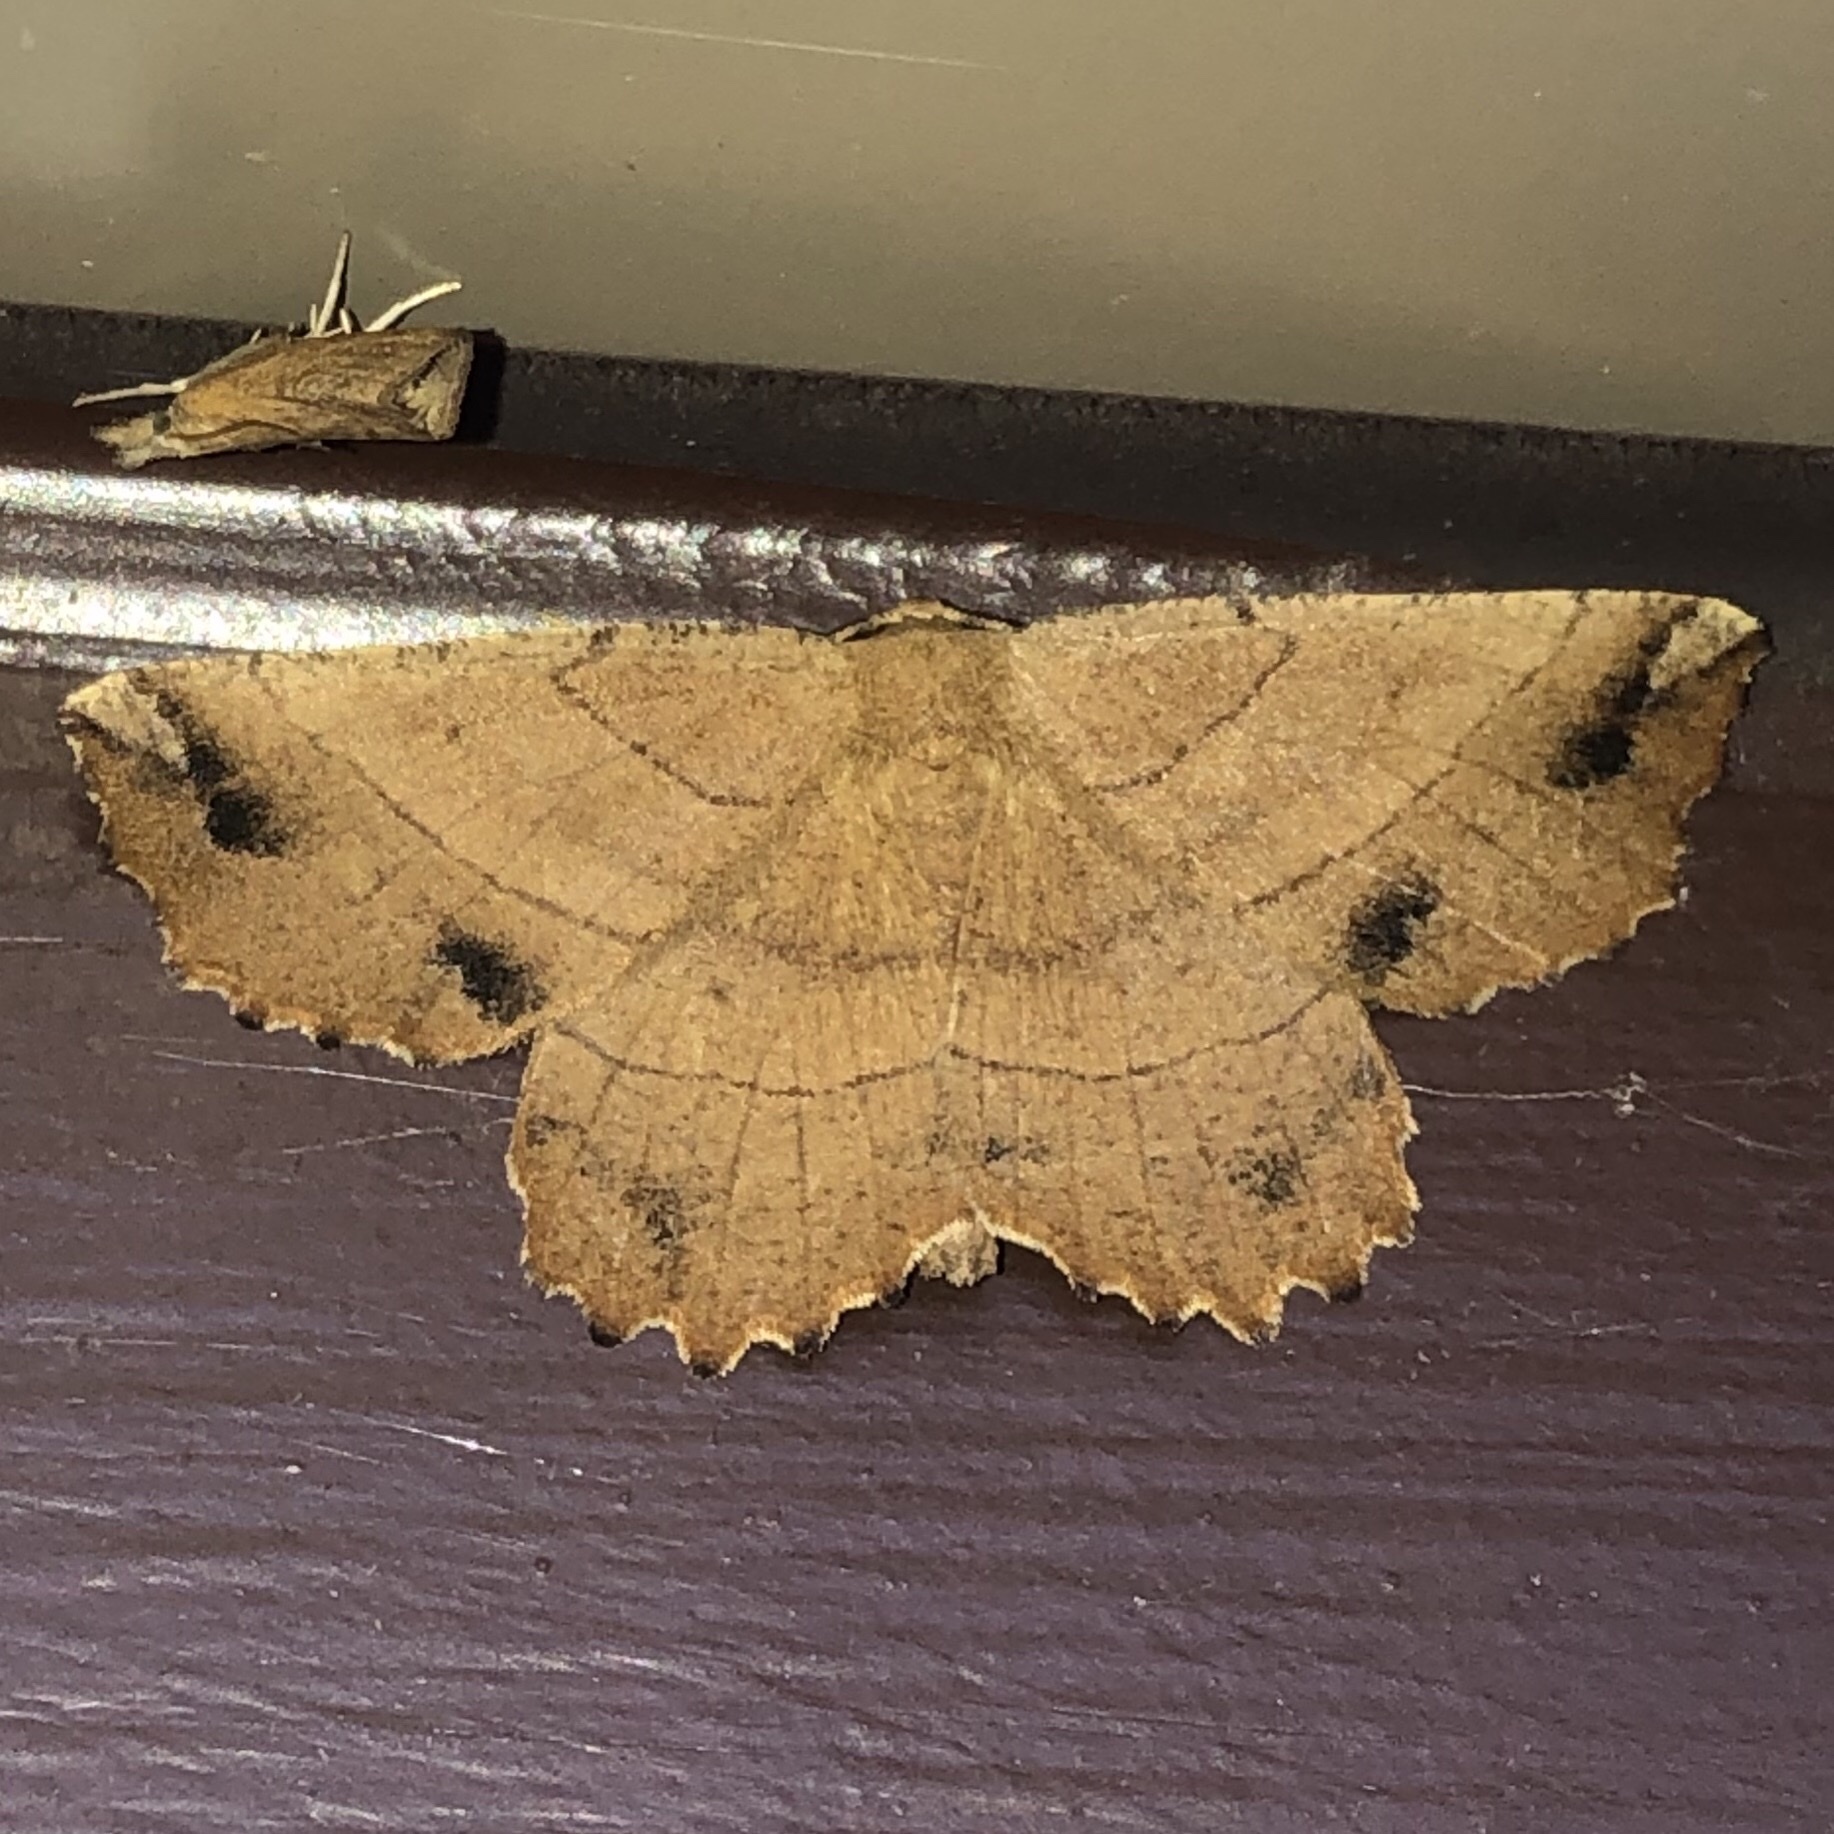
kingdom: Animalia
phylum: Arthropoda
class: Insecta
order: Lepidoptera
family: Geometridae
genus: Euchlaena
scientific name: Euchlaena johnsonaria
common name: Johnson's euchlaena
